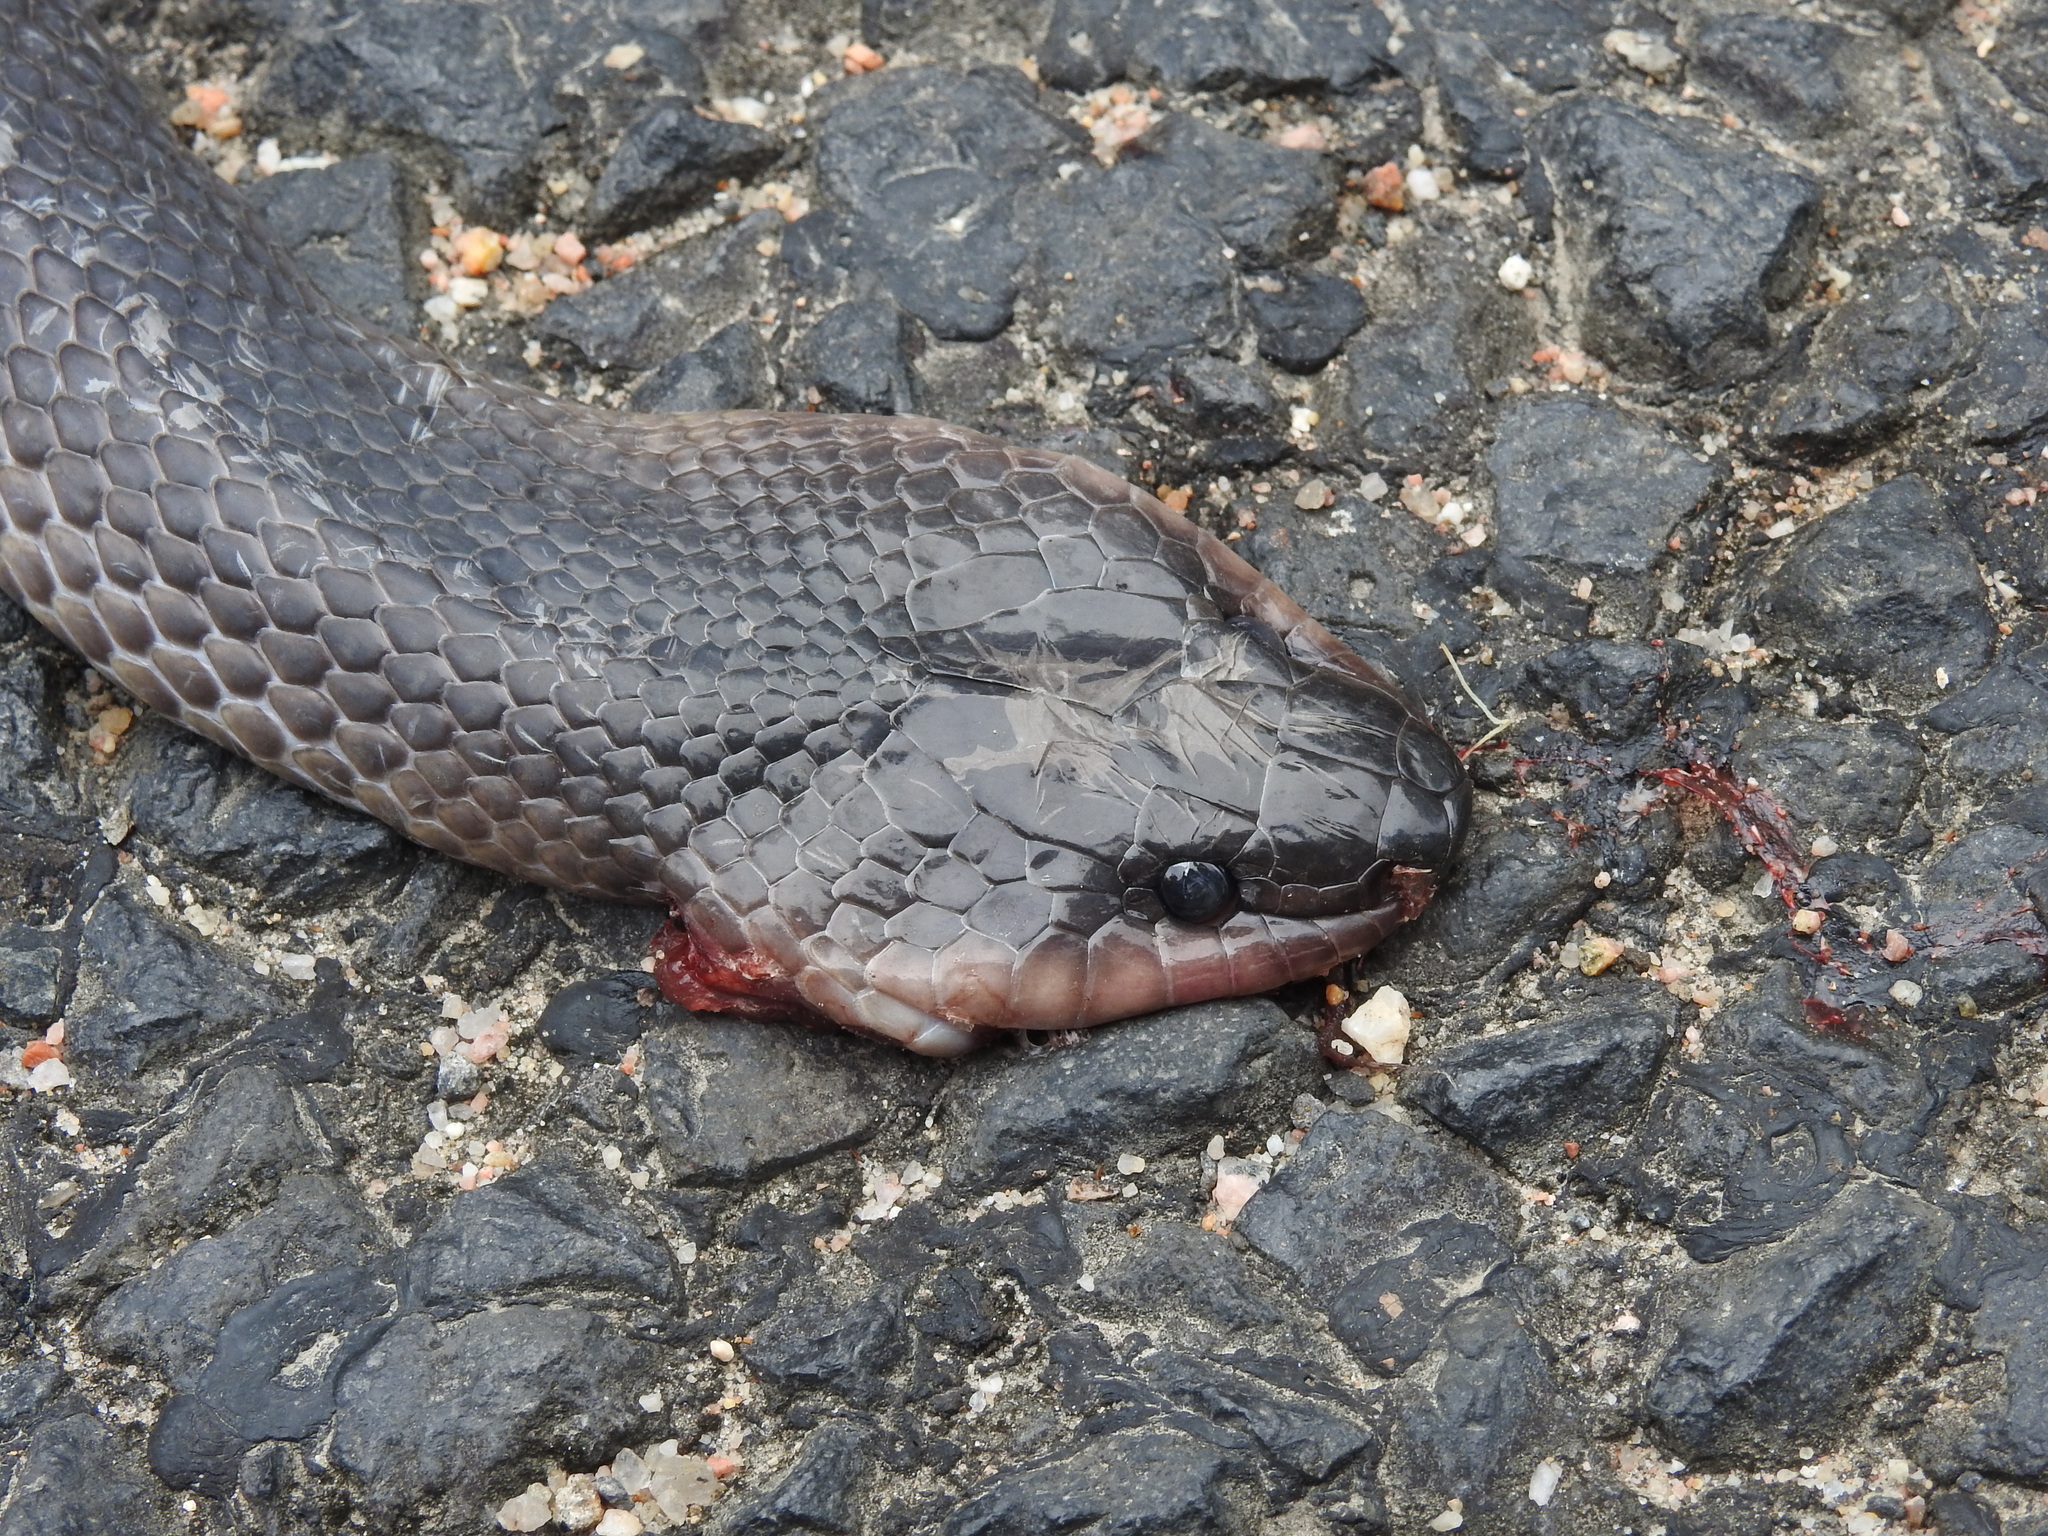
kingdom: Animalia
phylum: Chordata
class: Squamata
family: Colubridae
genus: Stegonotus
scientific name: Stegonotus australis
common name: Australian groundsnake
